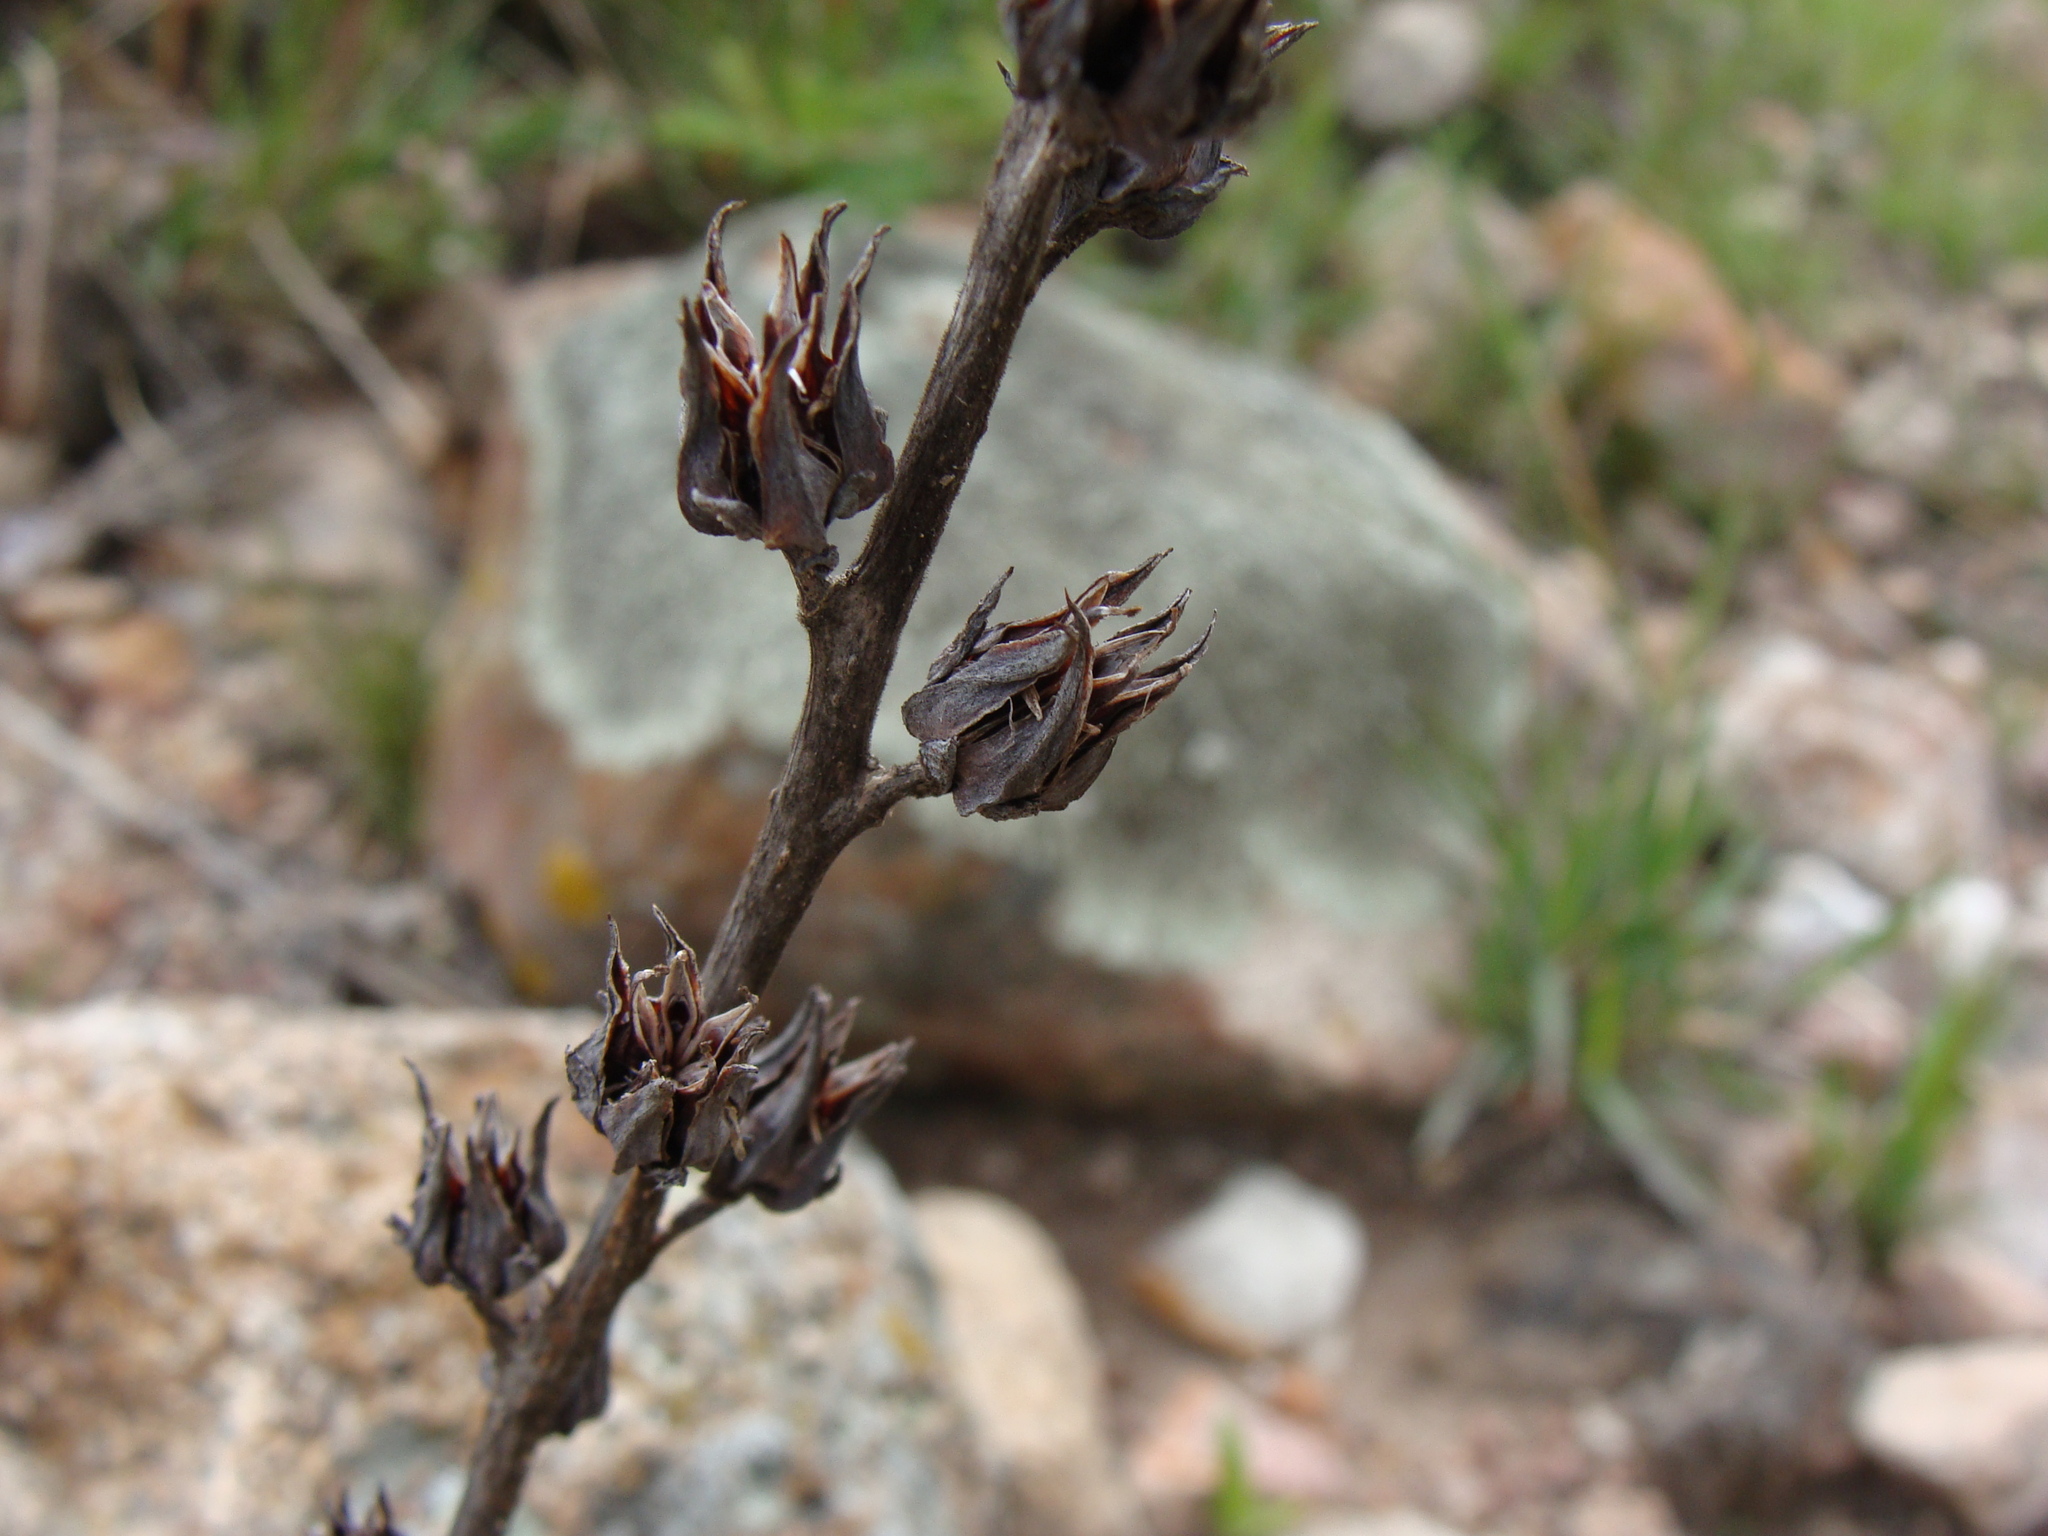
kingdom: Plantae
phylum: Tracheophyta
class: Magnoliopsida
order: Saxifragales
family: Crassulaceae
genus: Echeveria
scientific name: Echeveria mucronata
